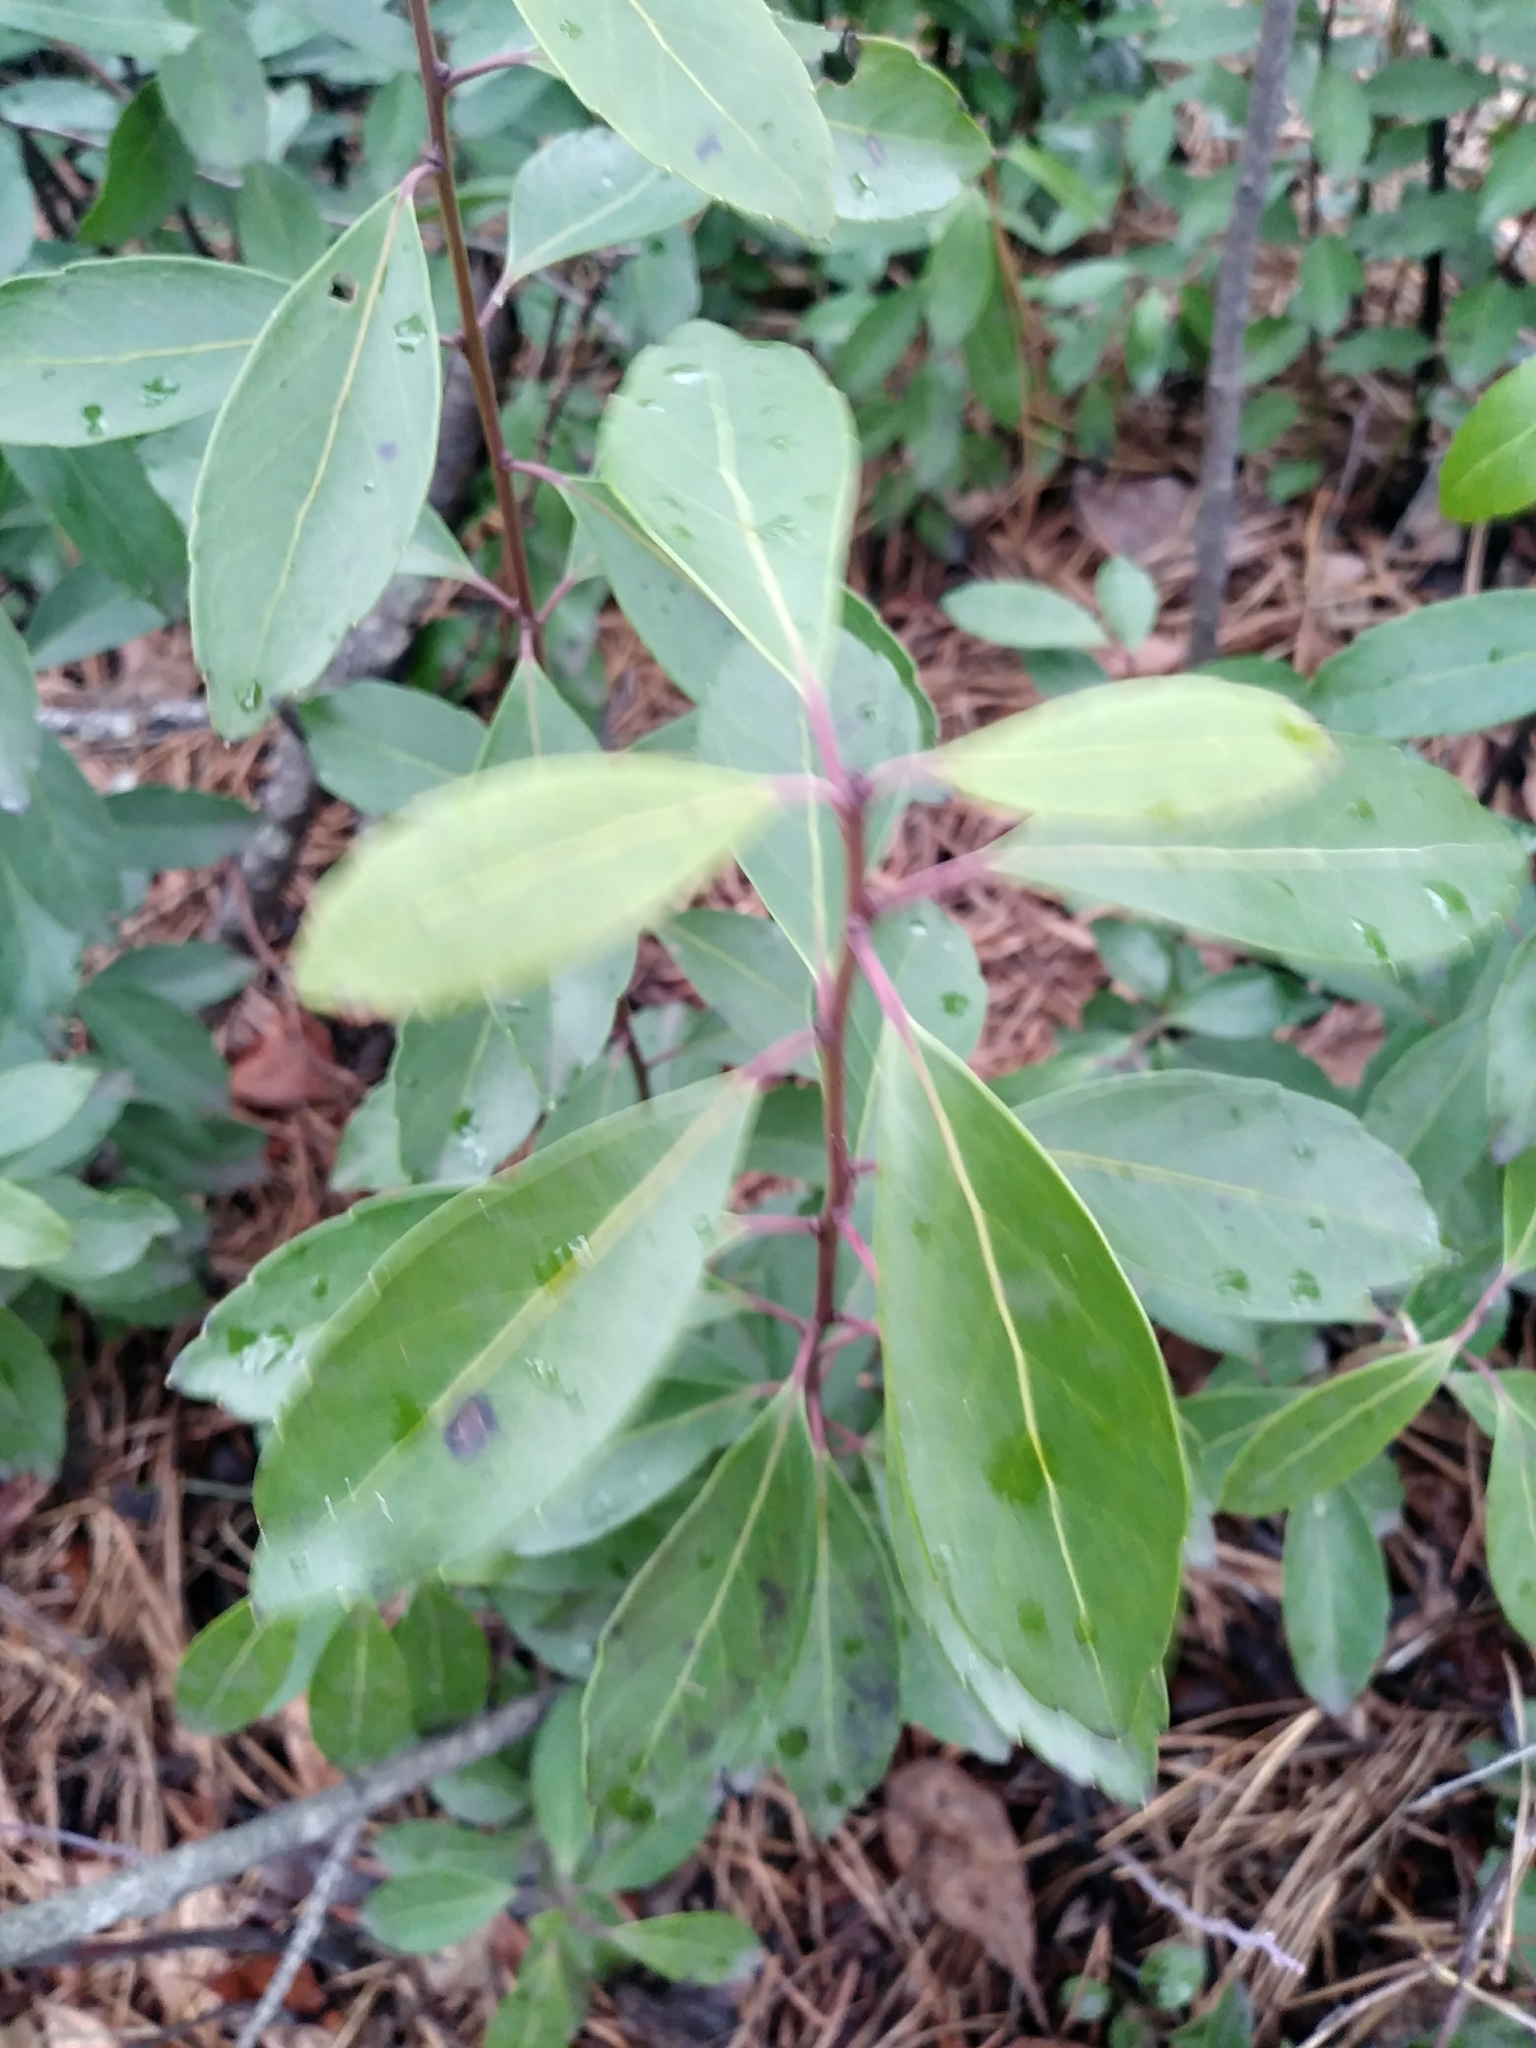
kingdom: Plantae
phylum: Tracheophyta
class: Magnoliopsida
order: Aquifoliales
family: Aquifoliaceae
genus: Ilex
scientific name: Ilex glabra
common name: Bitter gallberry
